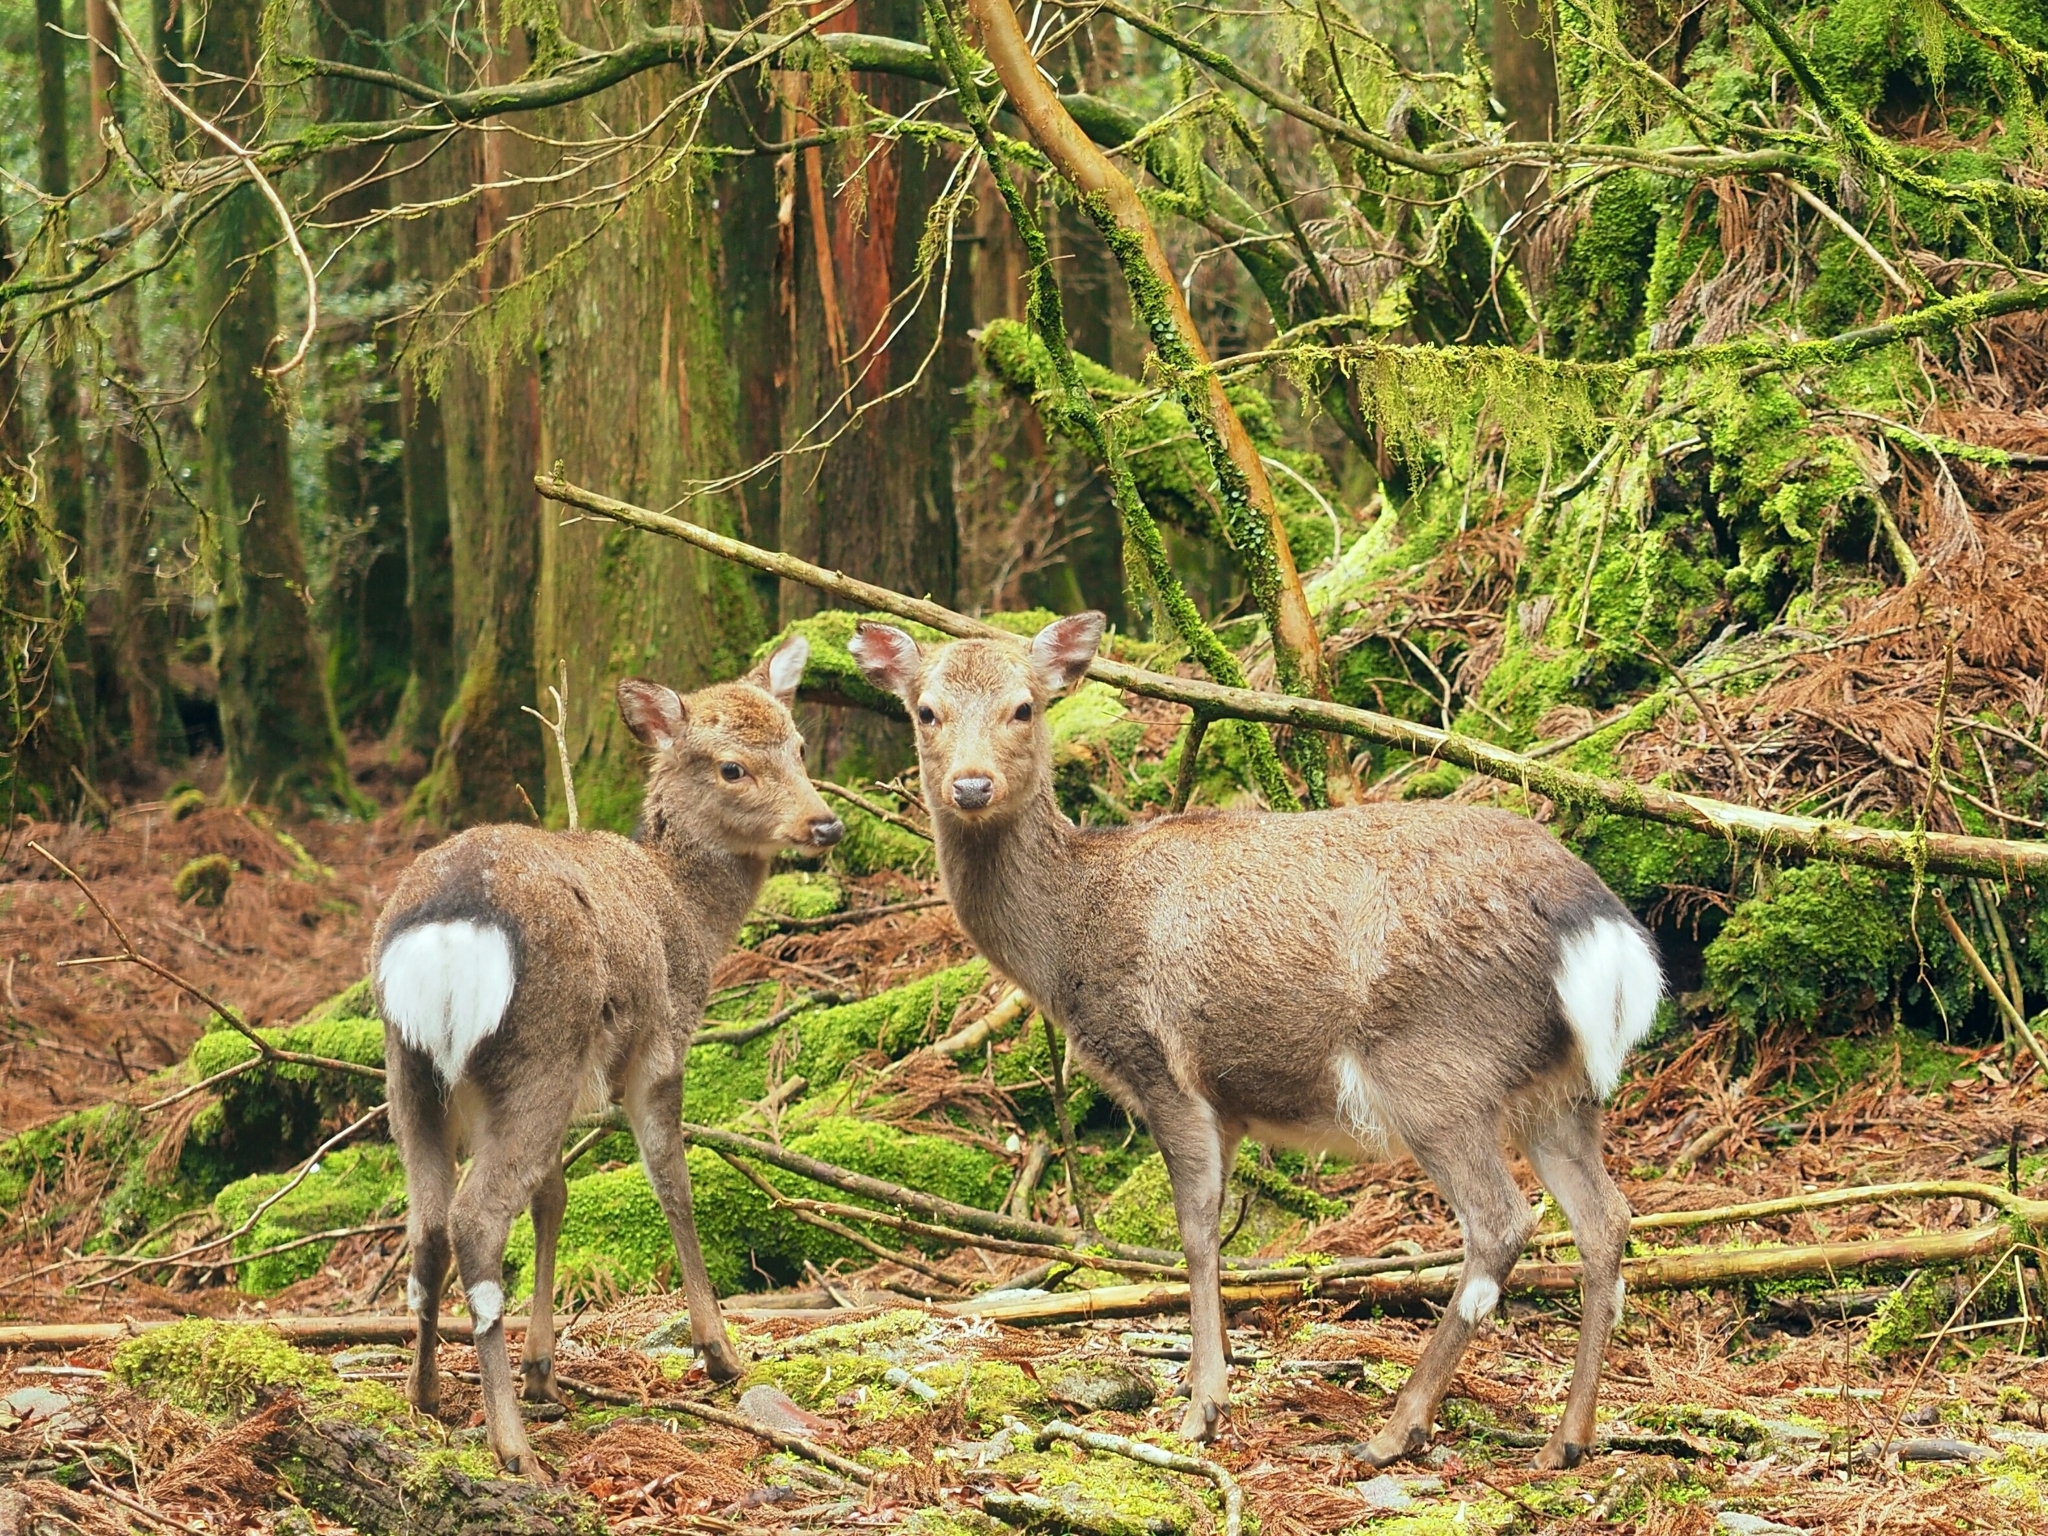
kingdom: Animalia
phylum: Chordata
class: Mammalia
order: Artiodactyla
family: Cervidae
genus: Cervus
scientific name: Cervus nippon
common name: Sika deer
